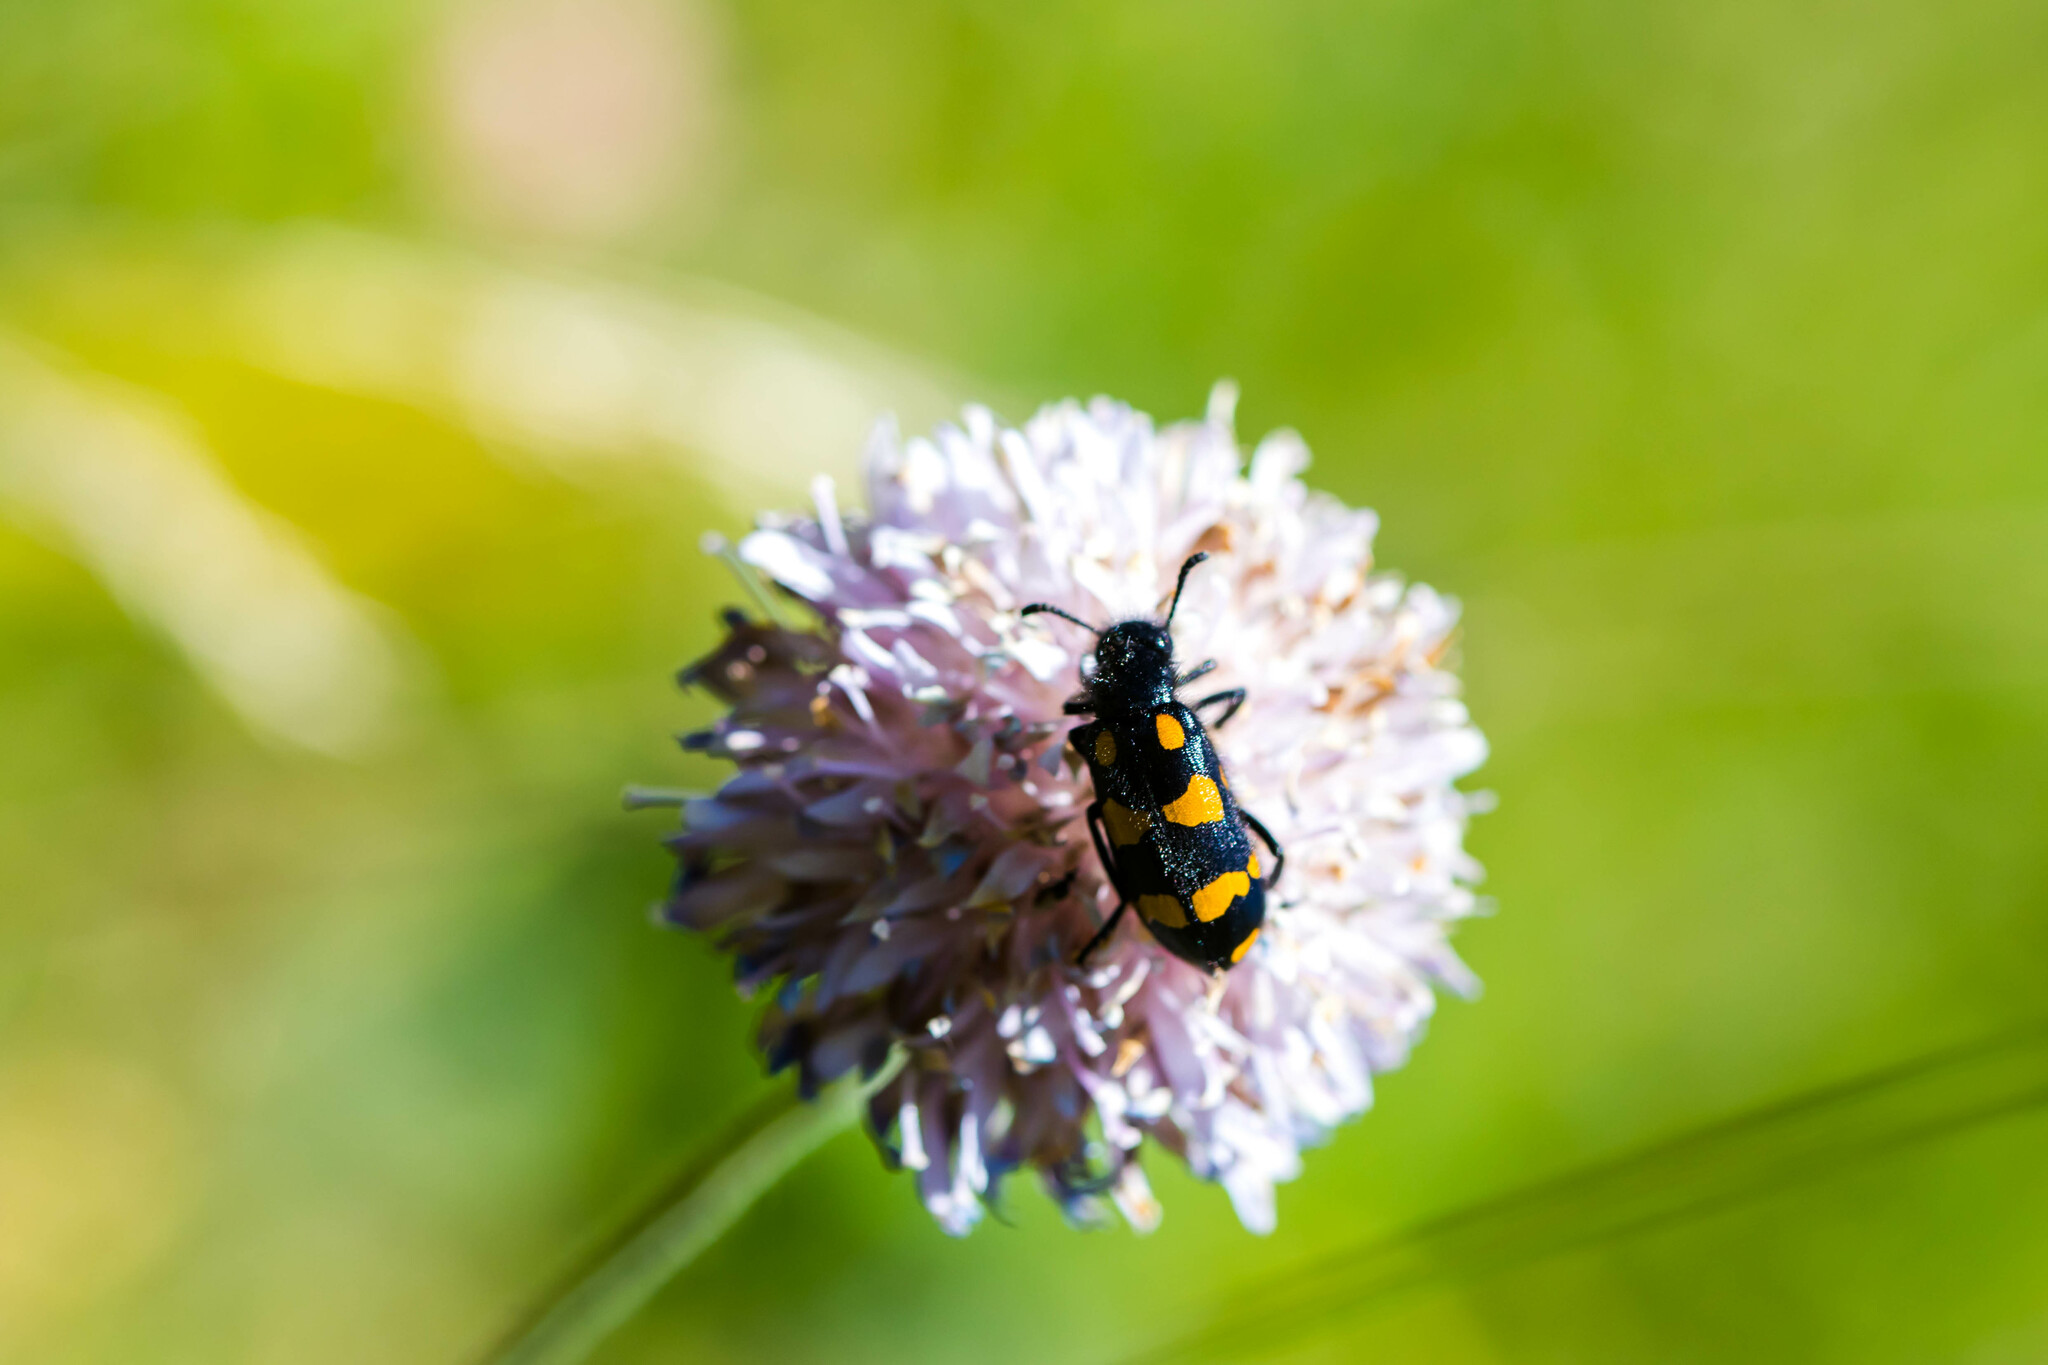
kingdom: Animalia
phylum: Arthropoda
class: Insecta
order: Coleoptera
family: Meloidae
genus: Hycleus
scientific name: Hycleus polymorphus
